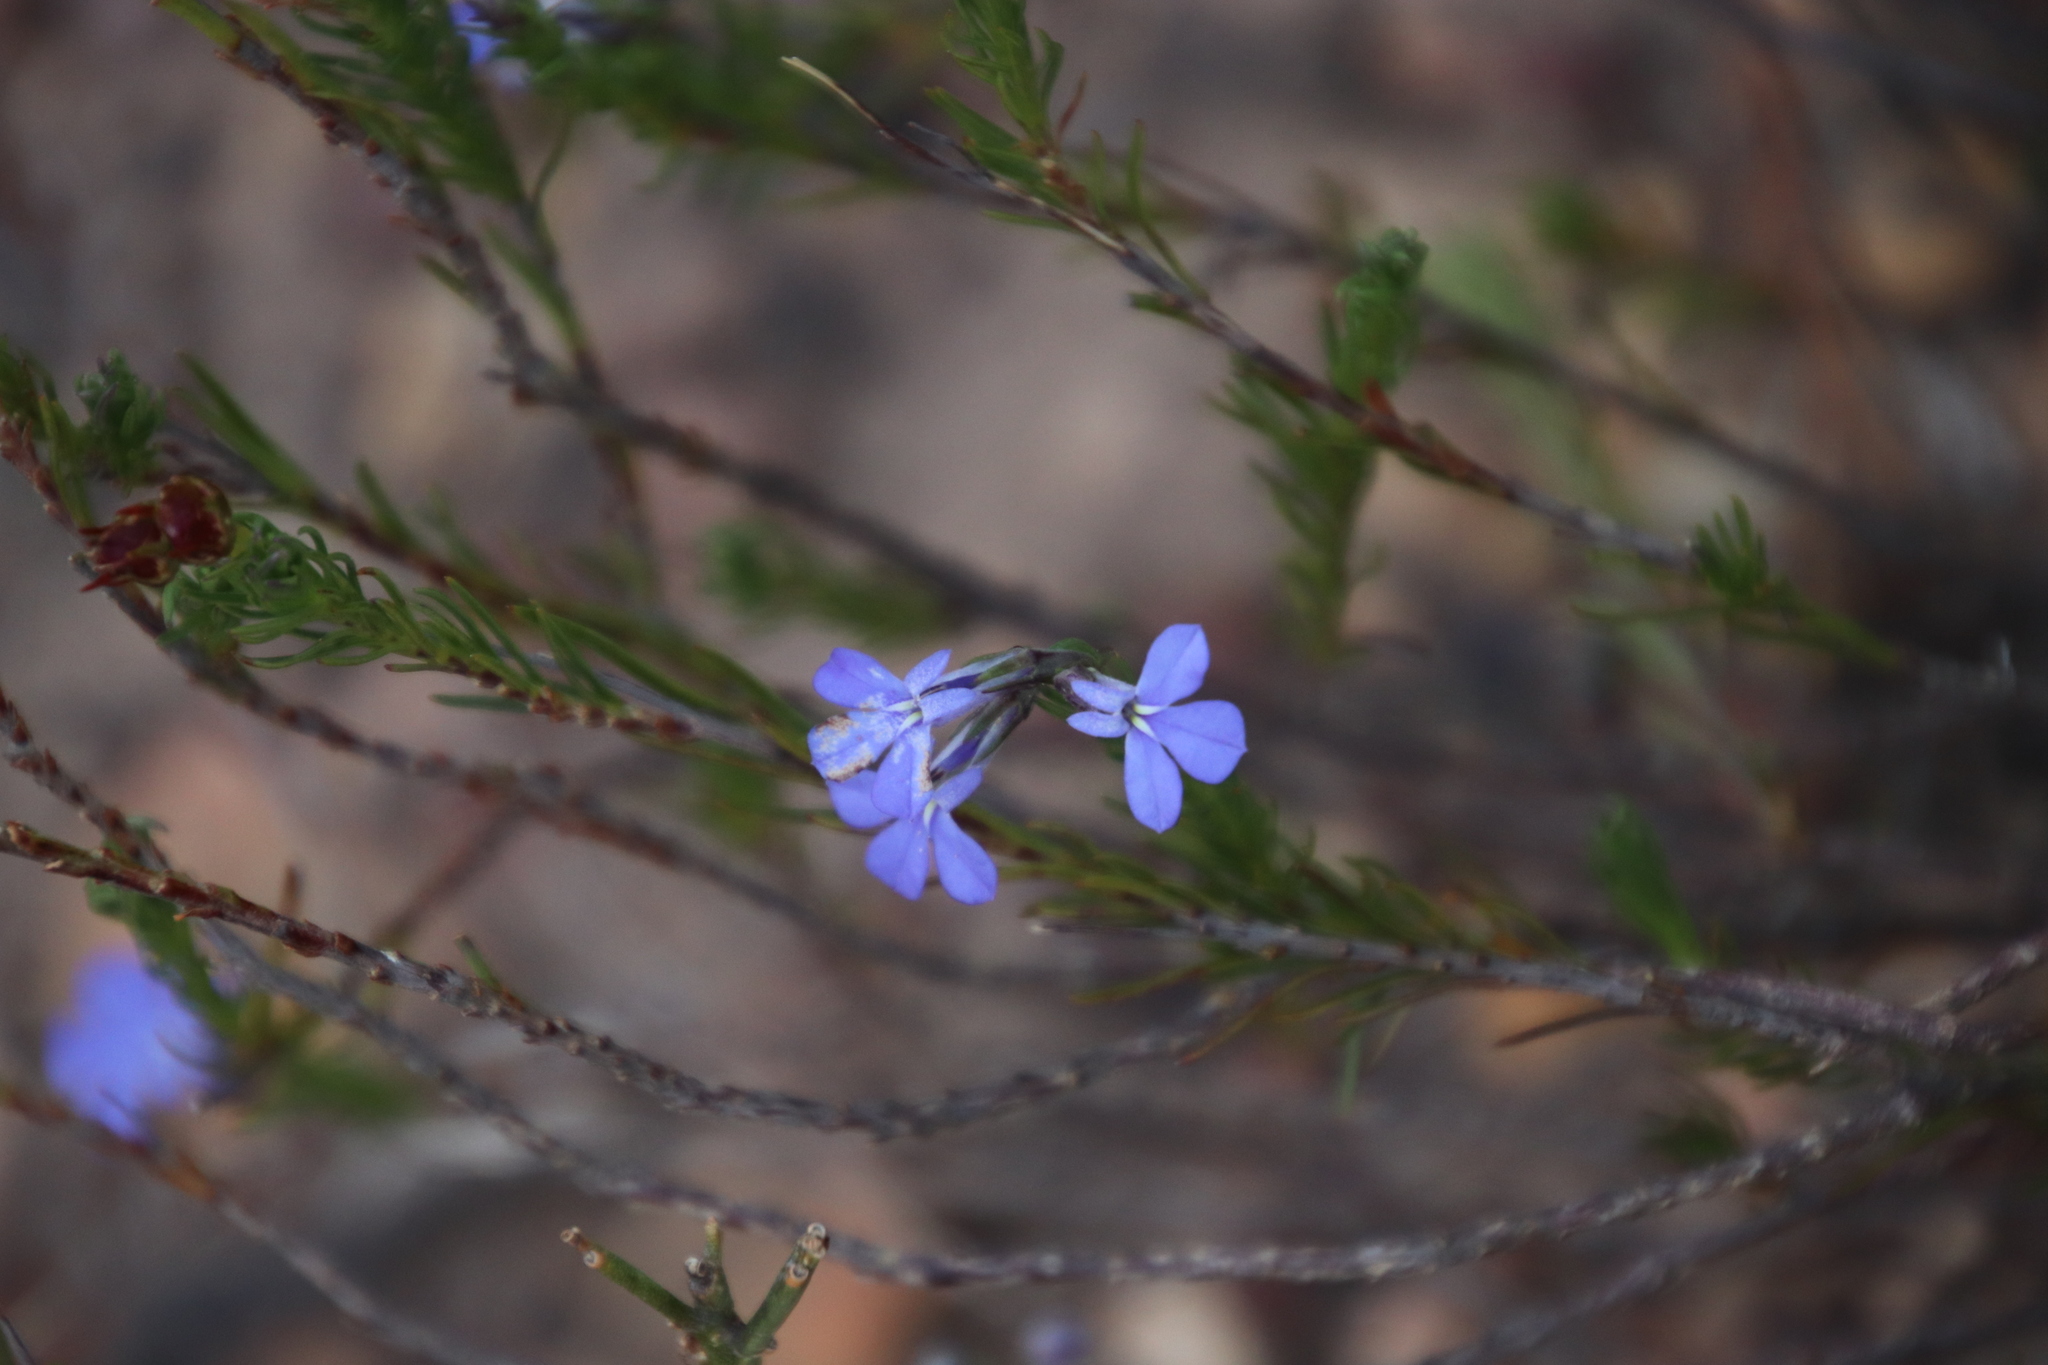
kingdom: Plantae
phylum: Tracheophyta
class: Magnoliopsida
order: Asterales
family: Campanulaceae
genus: Lobelia
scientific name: Lobelia pinifolia
